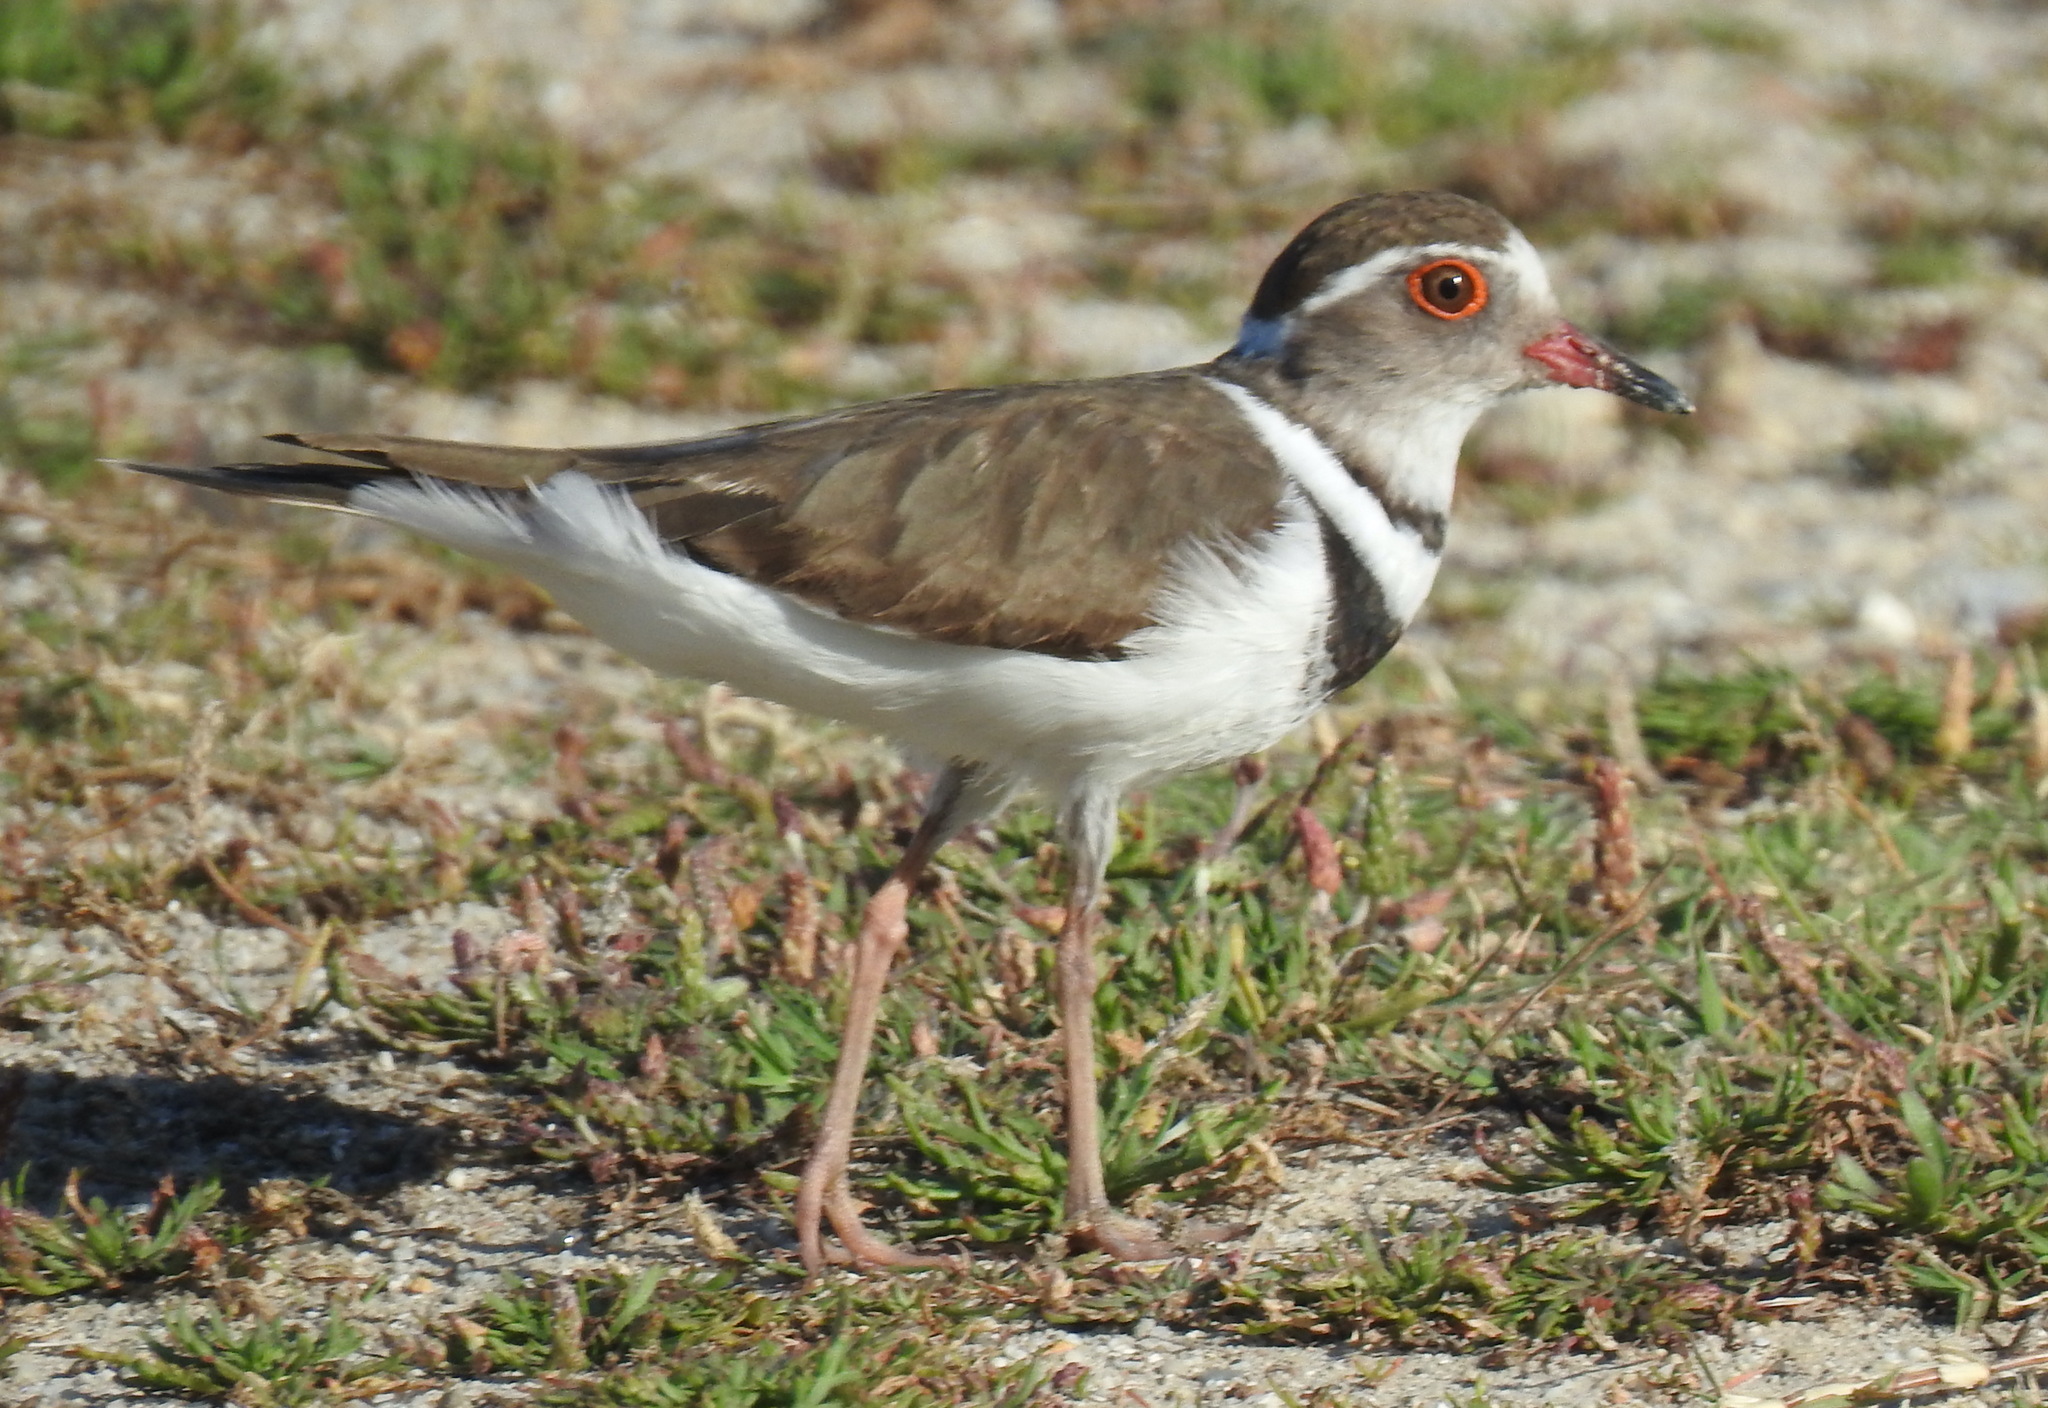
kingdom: Animalia
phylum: Chordata
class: Aves
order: Charadriiformes
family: Charadriidae
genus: Charadrius
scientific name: Charadrius tricollaris
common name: Three-banded plover
